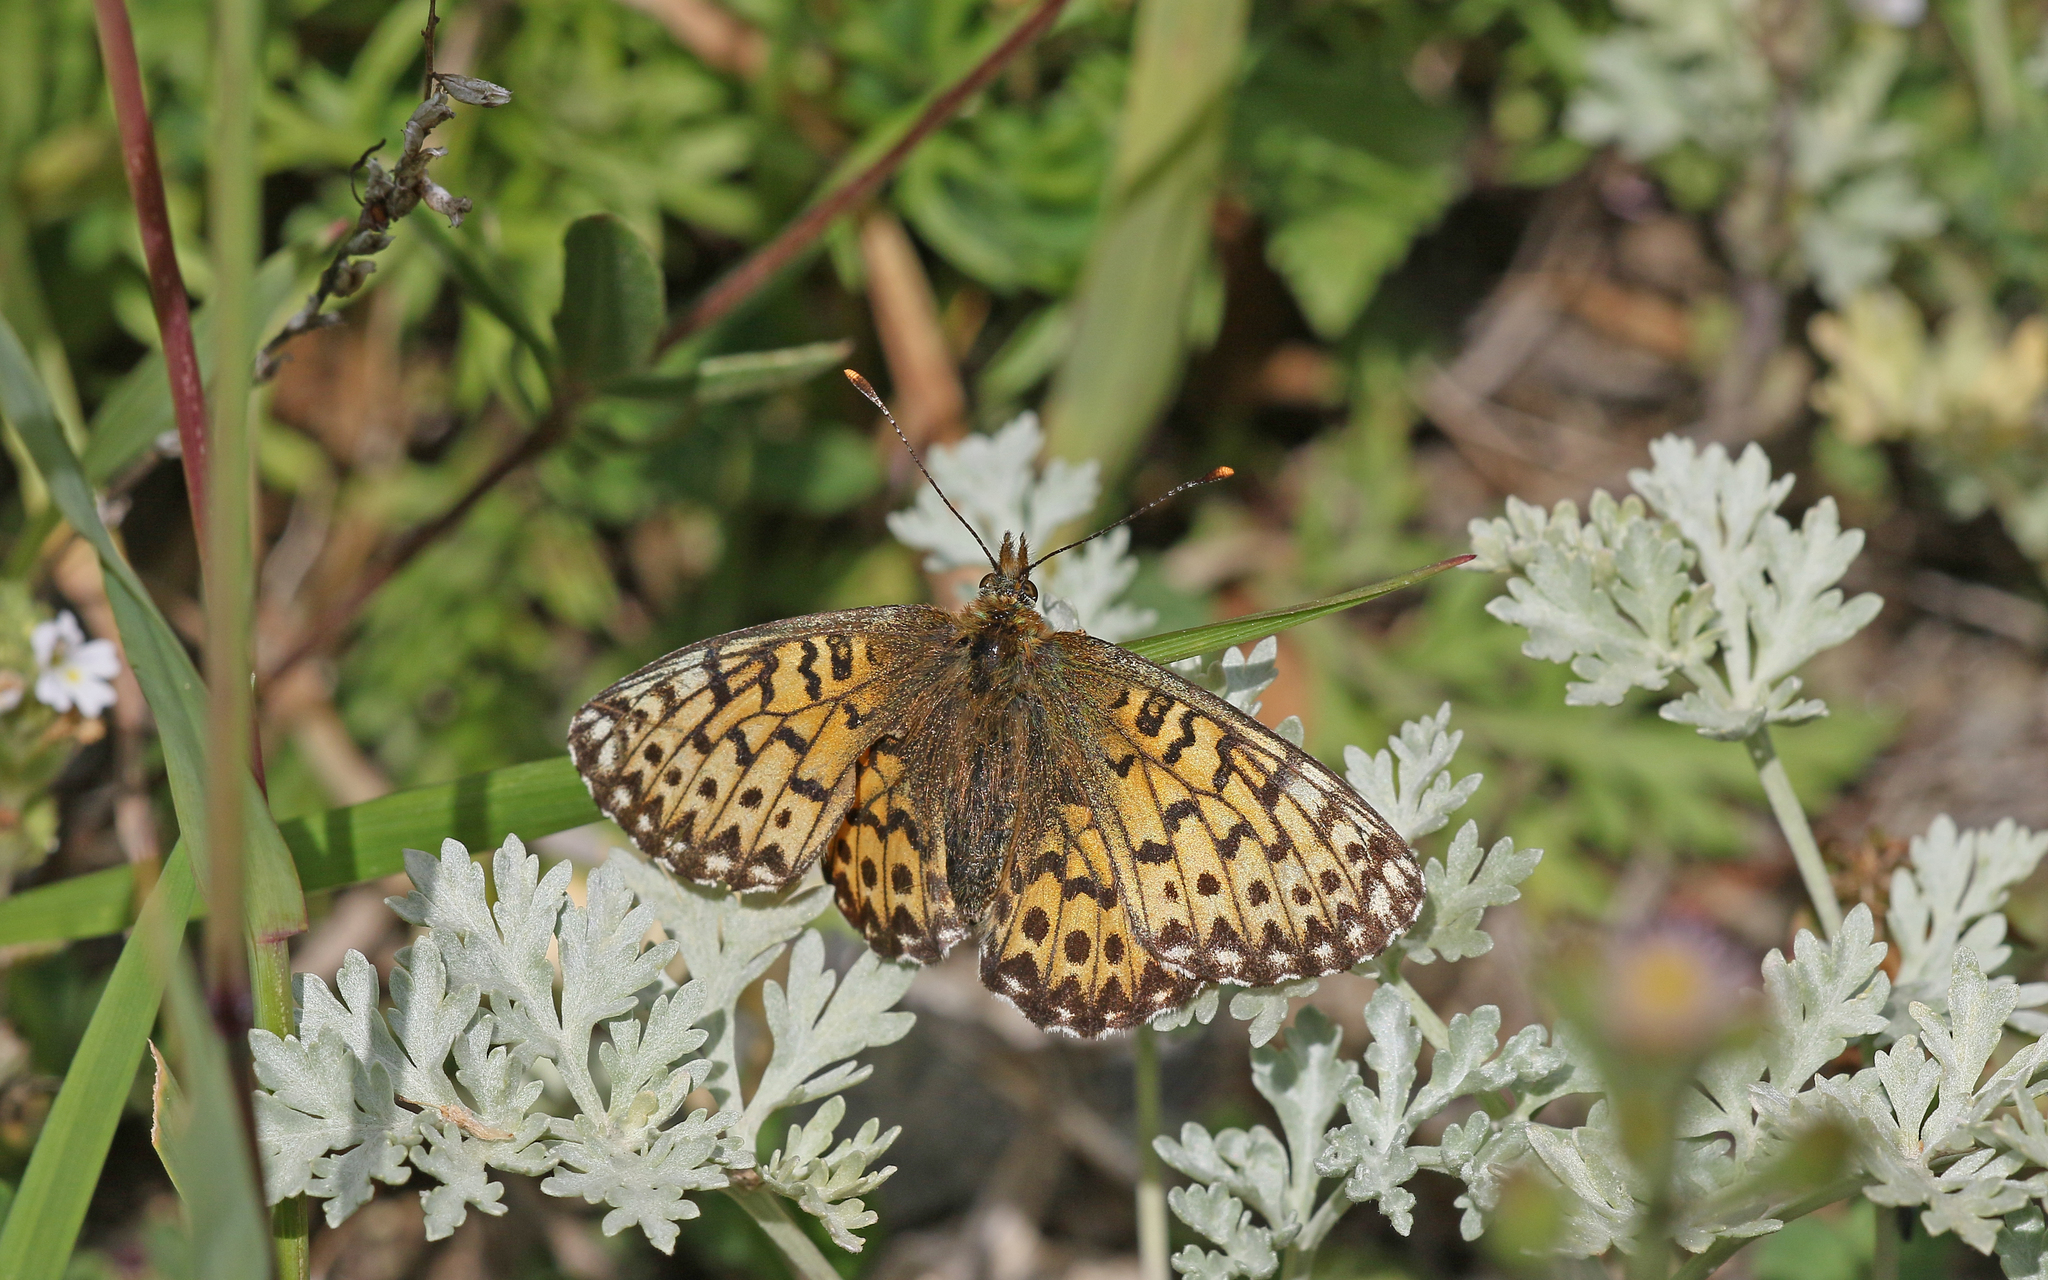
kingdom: Animalia
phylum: Arthropoda
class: Insecta
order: Lepidoptera
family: Nymphalidae
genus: Boloria
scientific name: Boloria titania
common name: Titania's fritillary
